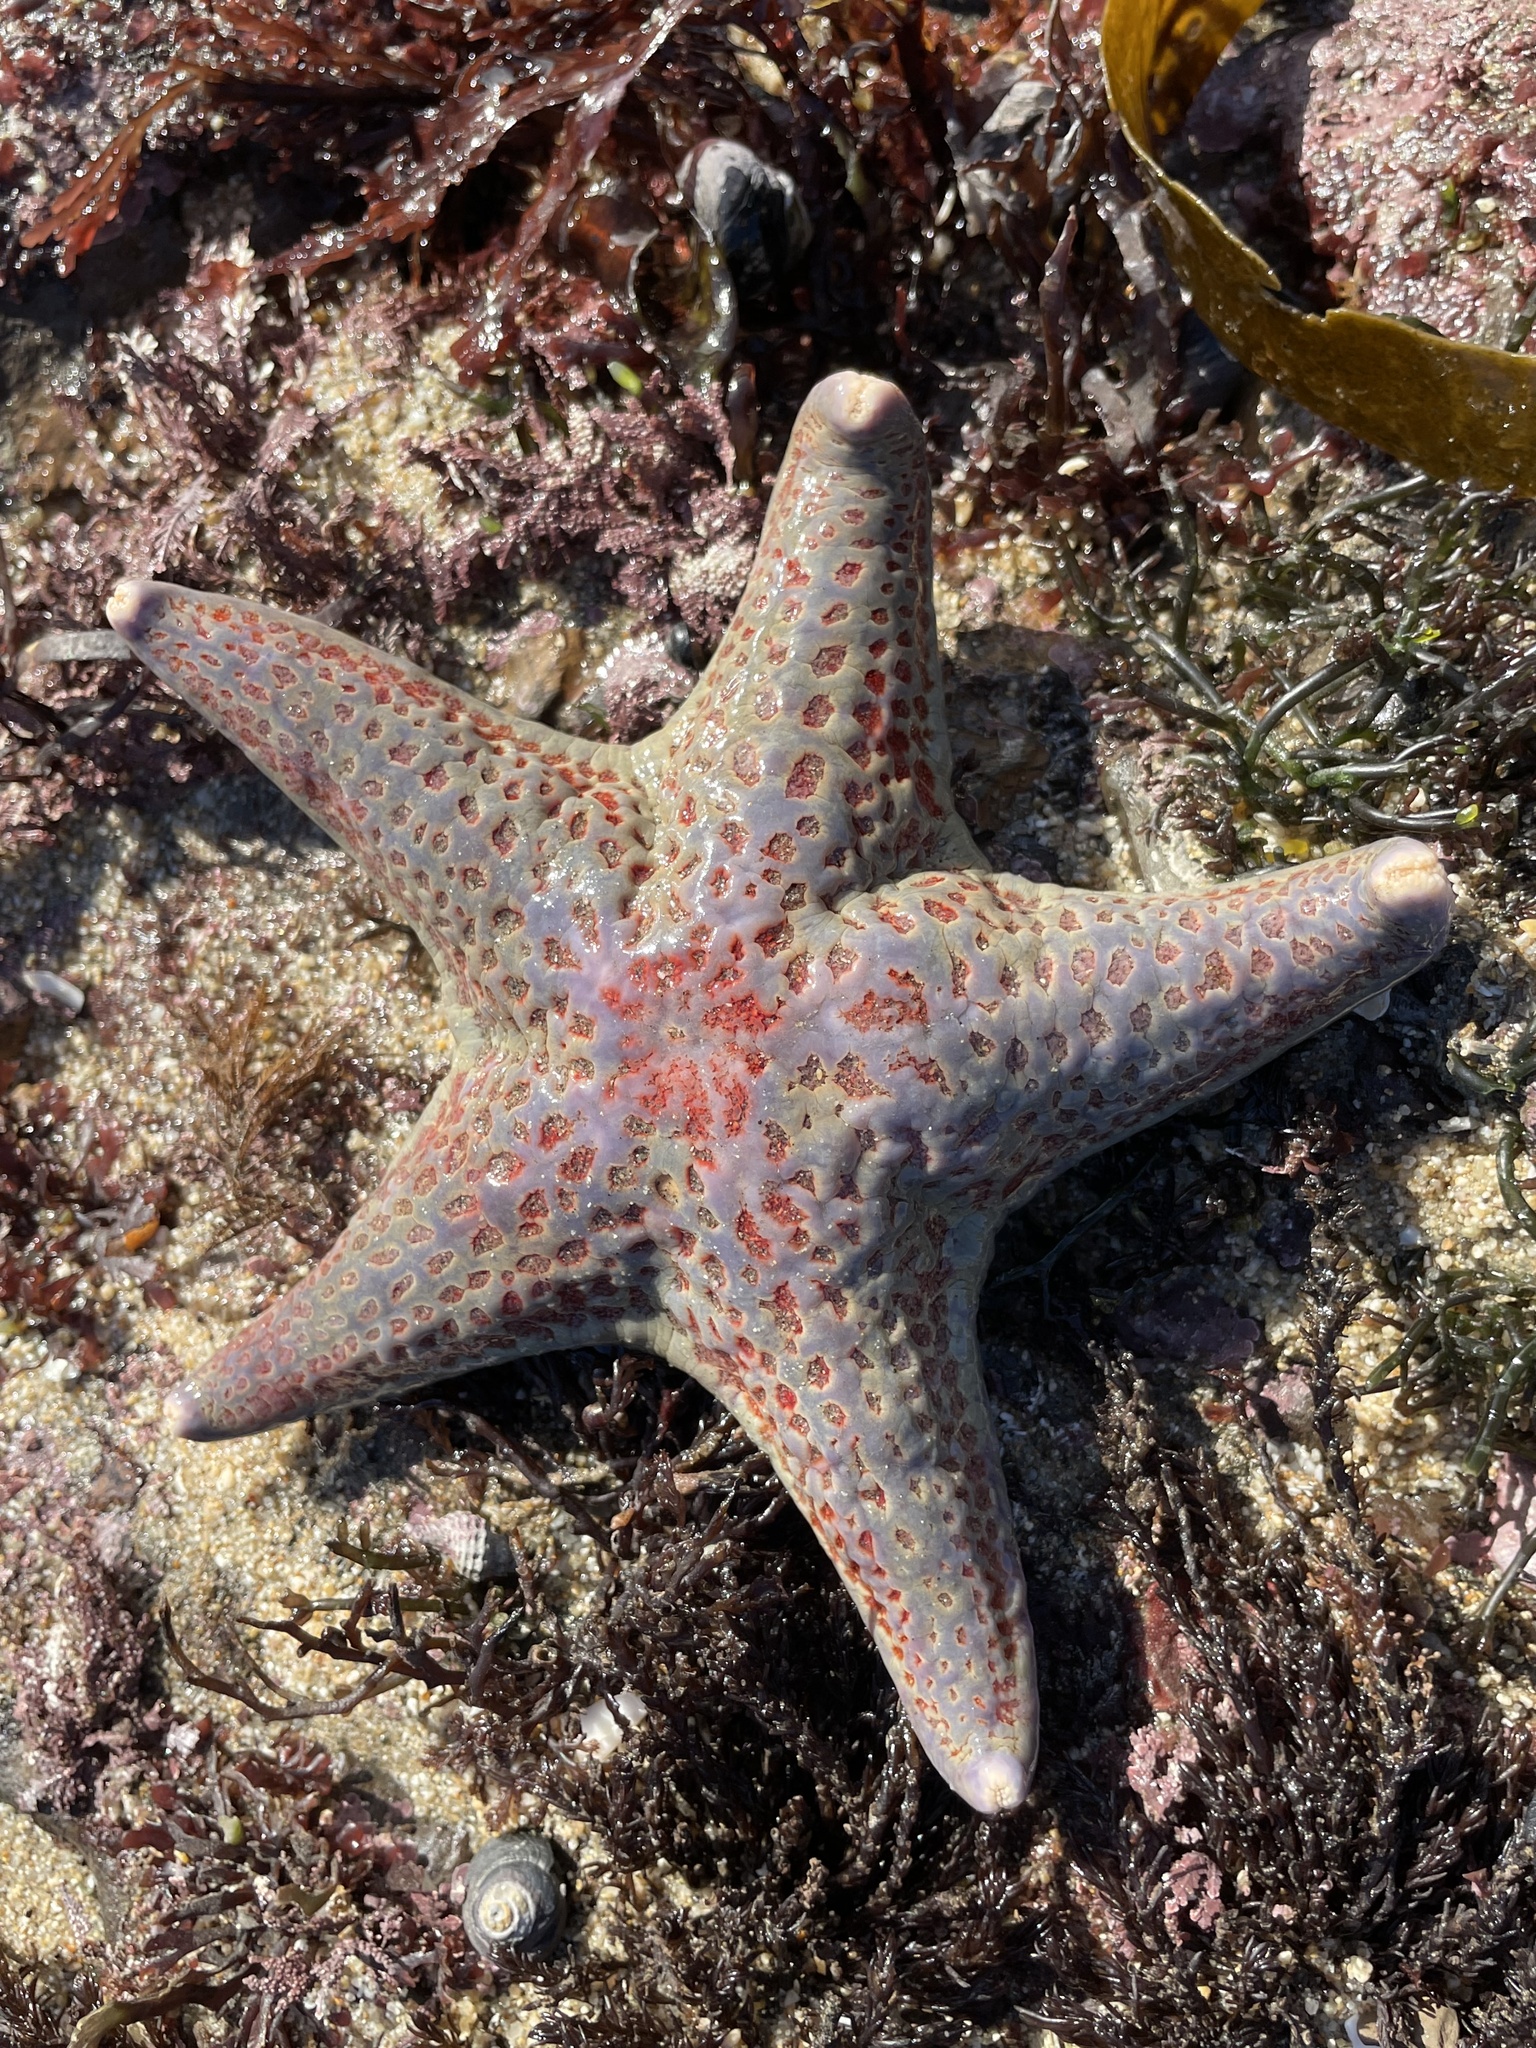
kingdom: Animalia
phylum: Echinodermata
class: Asteroidea
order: Valvatida
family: Asteropseidae
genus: Dermasterias
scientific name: Dermasterias imbricata
